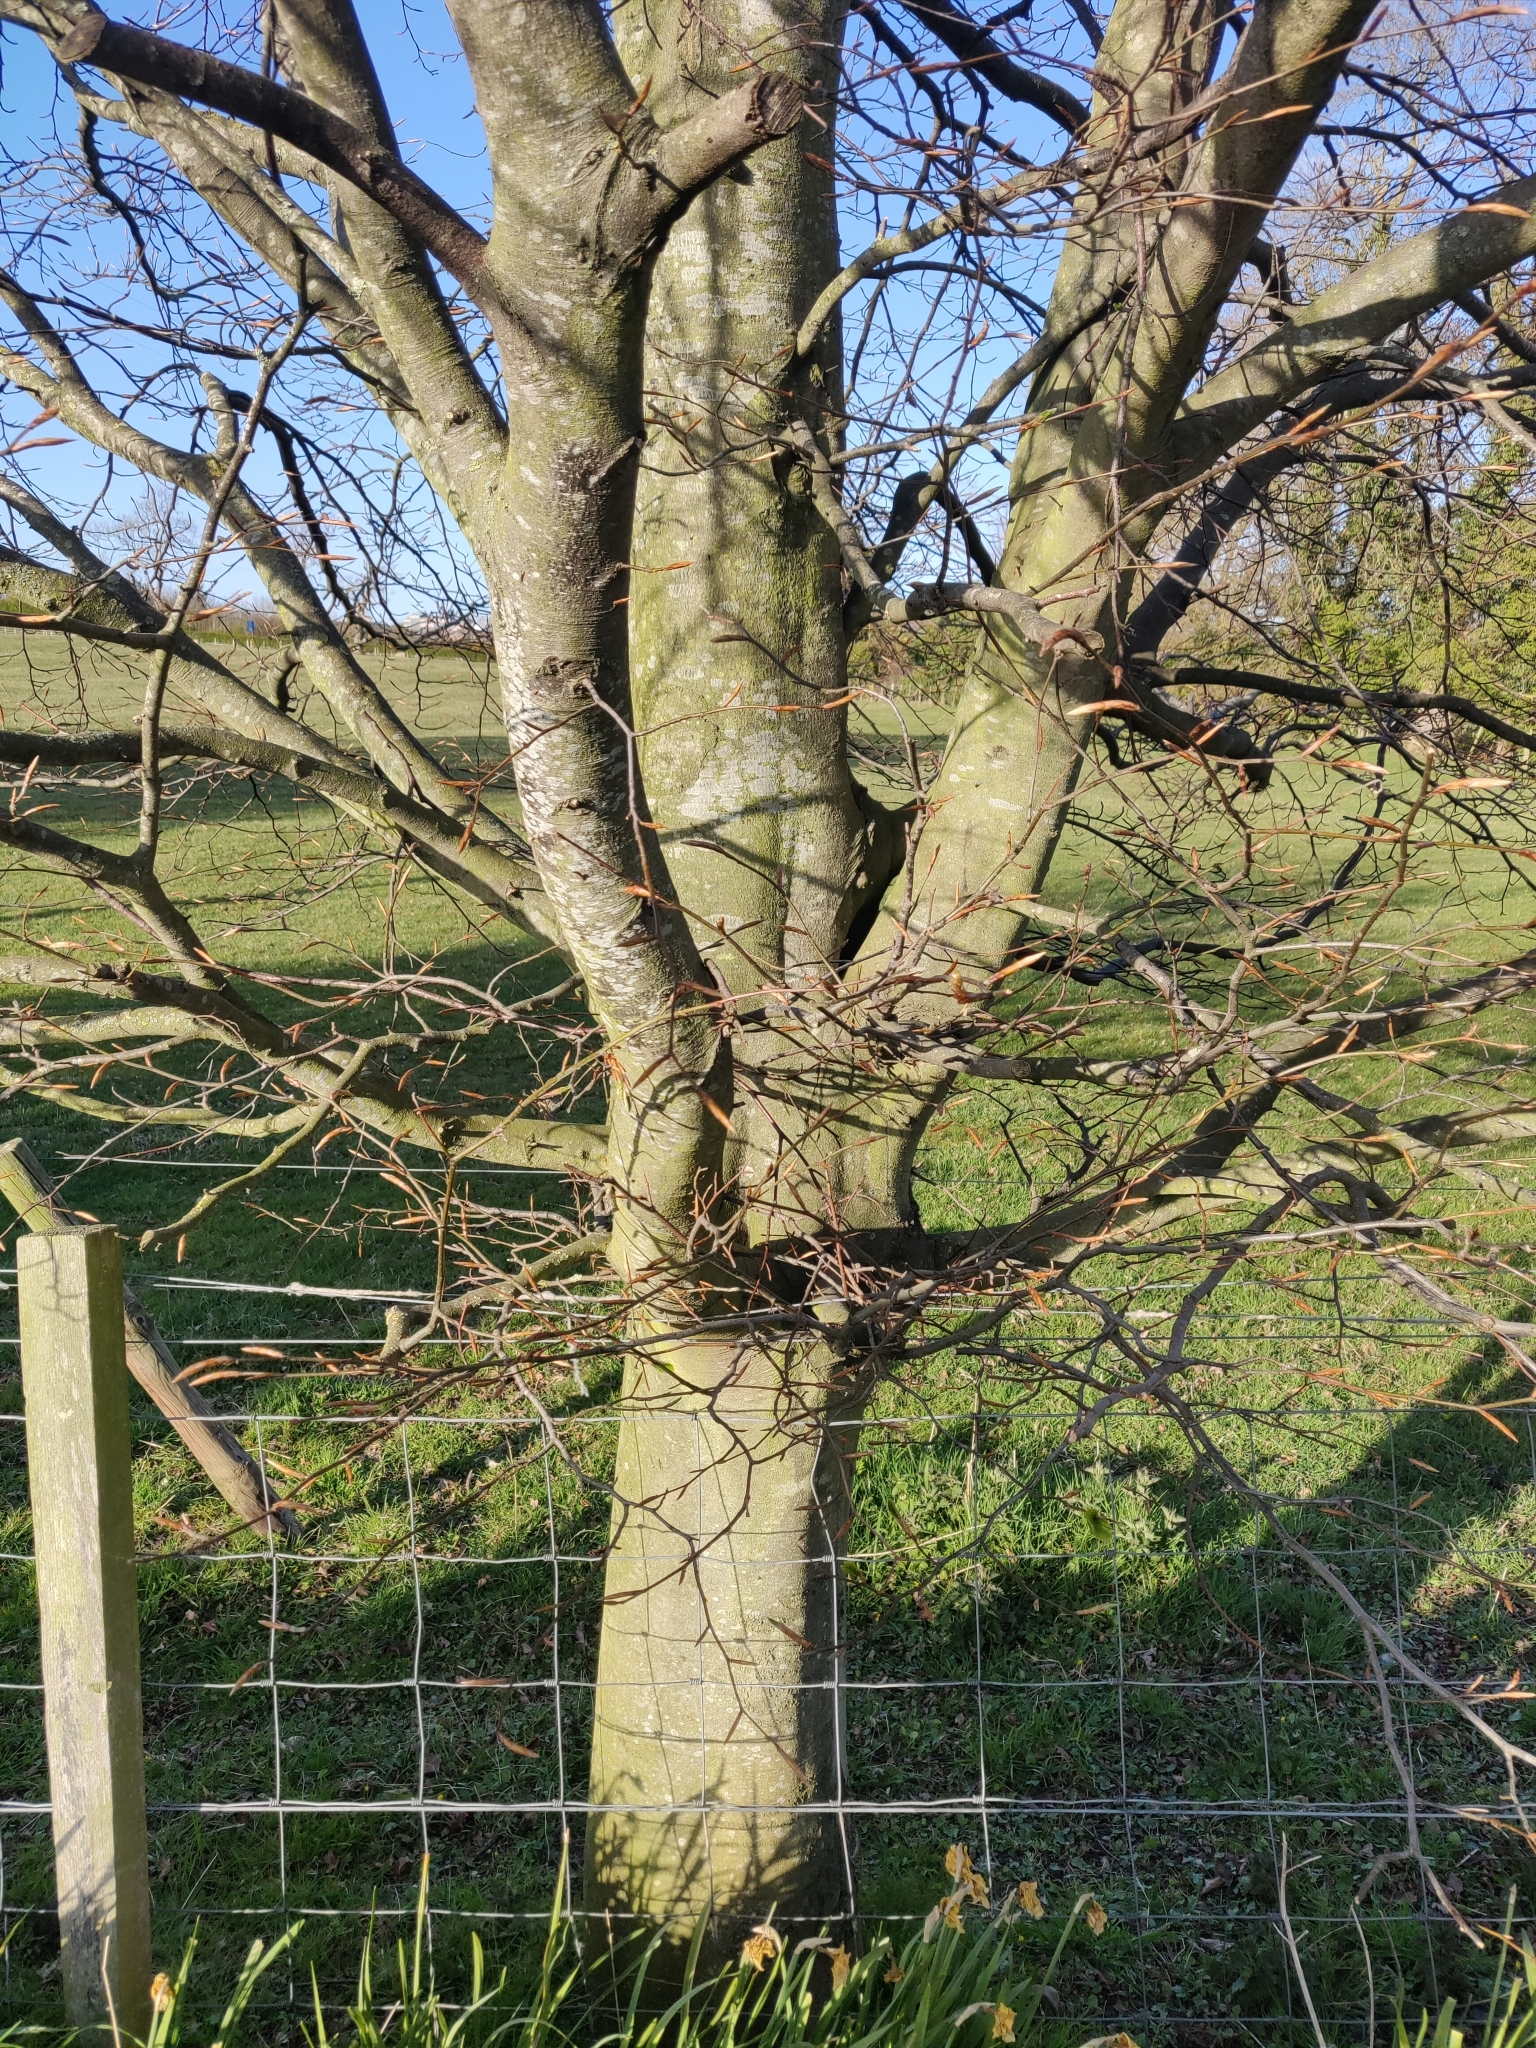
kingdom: Plantae
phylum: Tracheophyta
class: Magnoliopsida
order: Fagales
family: Fagaceae
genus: Fagus
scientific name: Fagus sylvatica
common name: Beech
